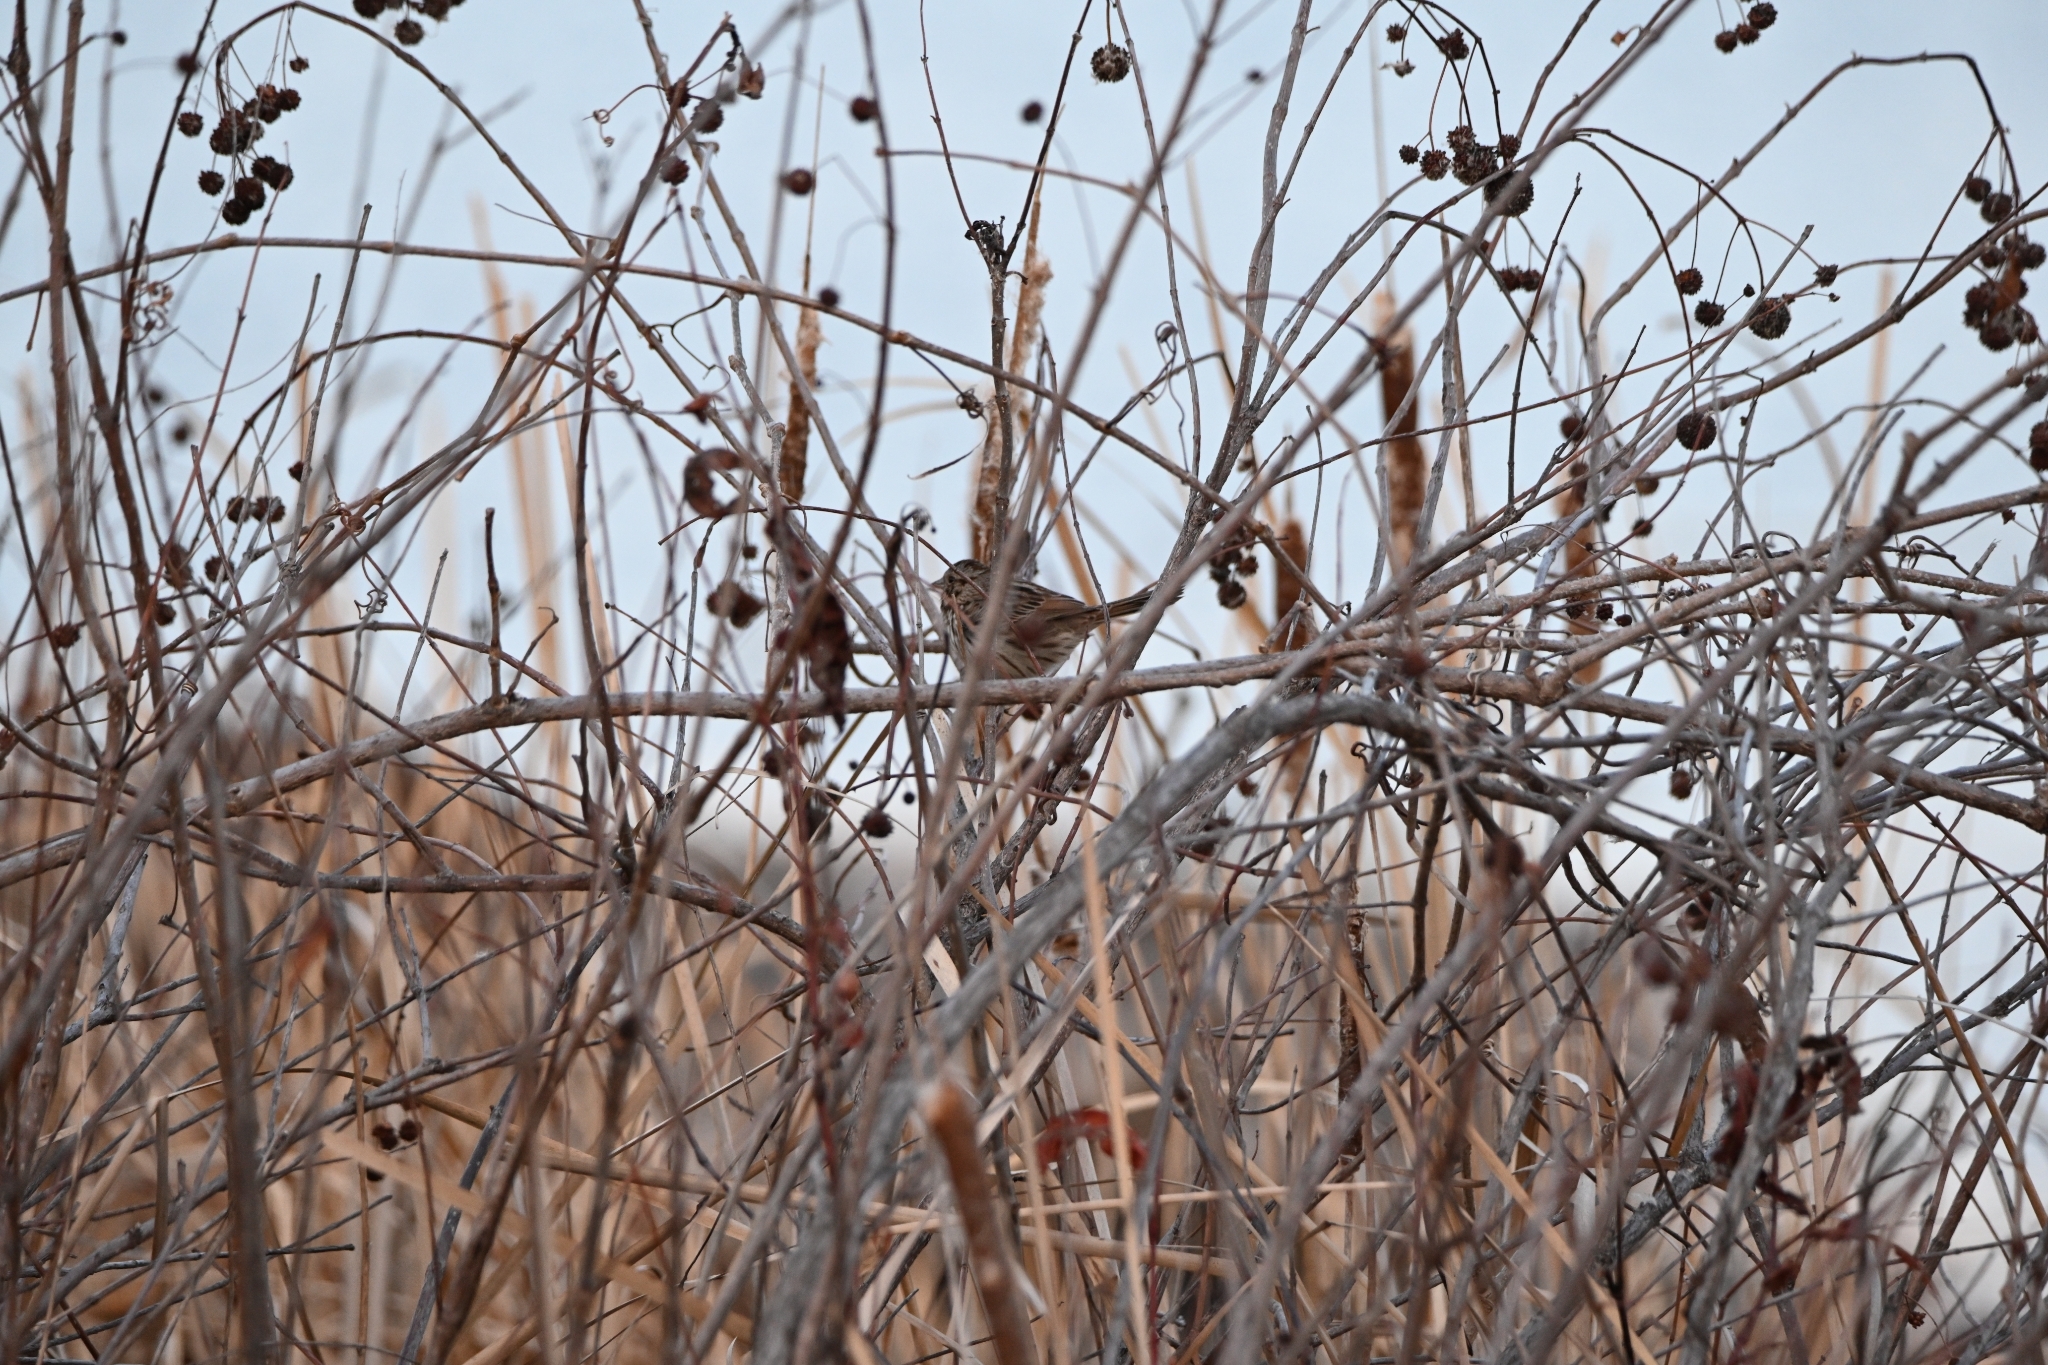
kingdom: Animalia
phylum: Chordata
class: Aves
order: Passeriformes
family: Passerellidae
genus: Melospiza
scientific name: Melospiza melodia
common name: Song sparrow
